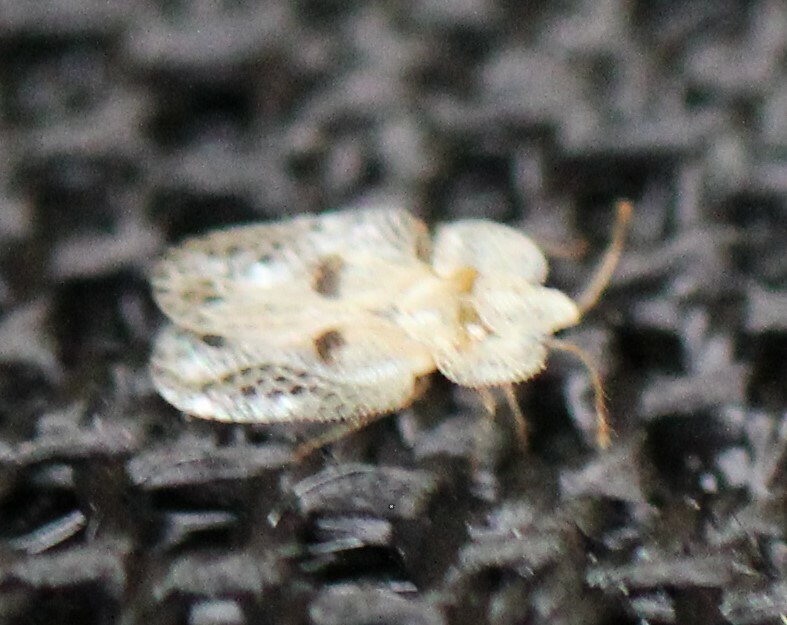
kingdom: Animalia
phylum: Arthropoda
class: Insecta
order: Hemiptera
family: Tingidae
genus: Corythucha
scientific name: Corythucha ciliata
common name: Sycamore lace bug
